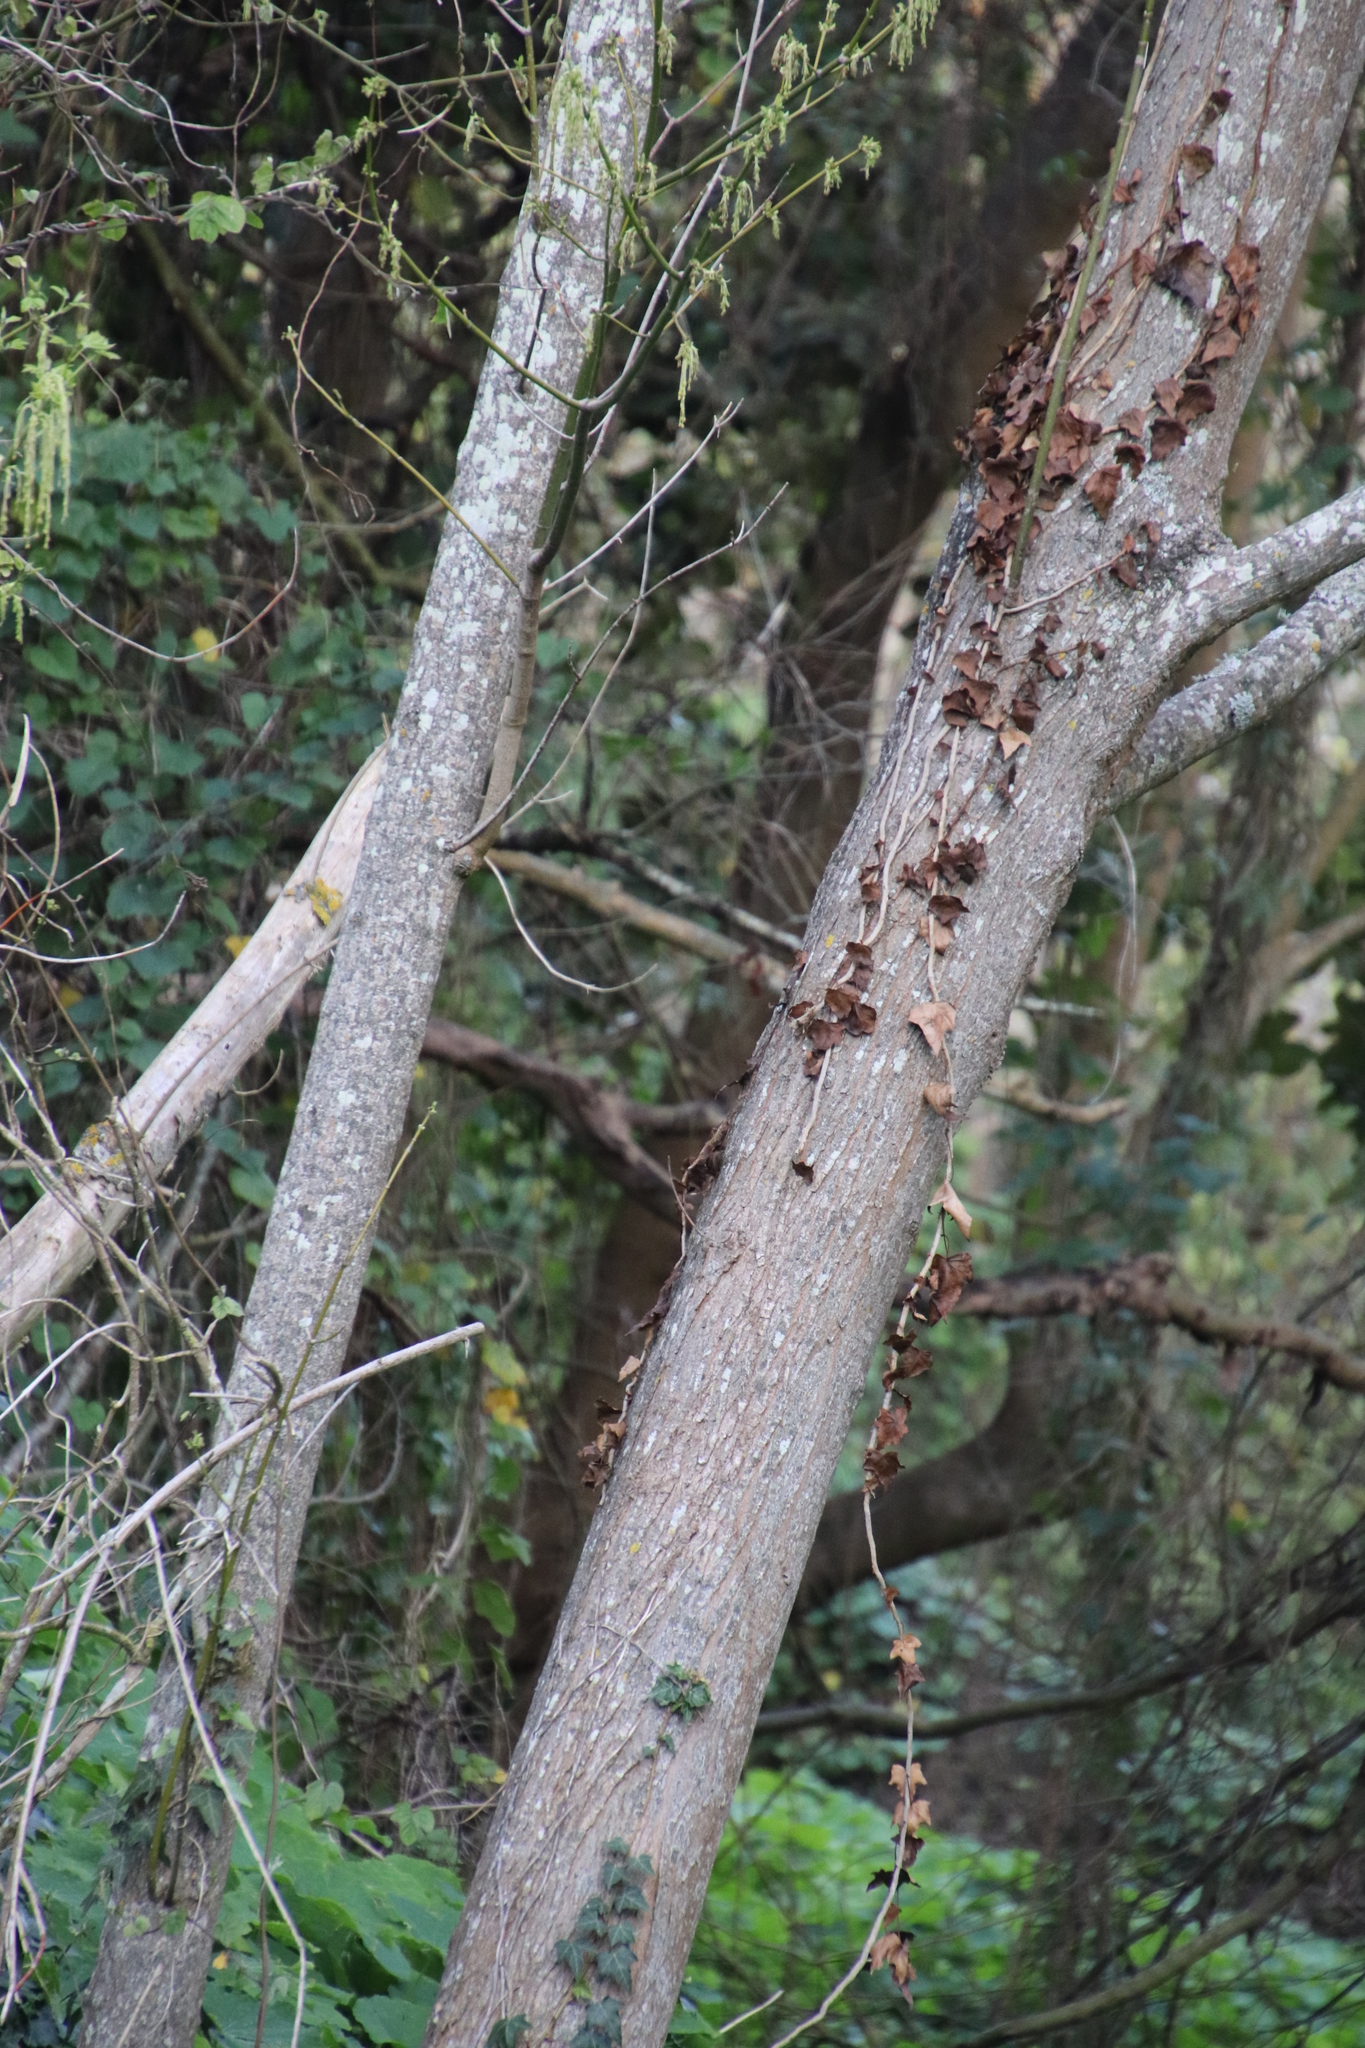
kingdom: Plantae
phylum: Tracheophyta
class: Magnoliopsida
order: Sapindales
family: Sapindaceae
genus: Acer
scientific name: Acer negundo
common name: Ashleaf maple
